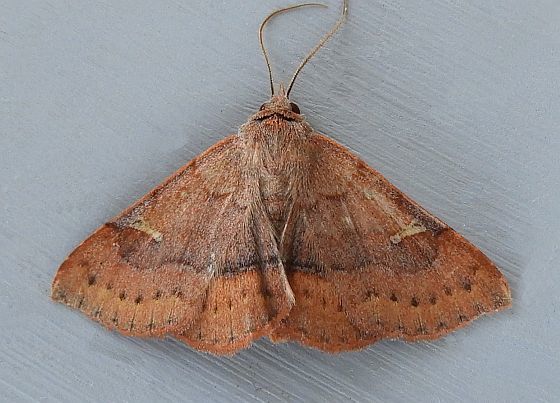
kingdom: Animalia
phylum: Arthropoda
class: Insecta
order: Lepidoptera
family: Erebidae
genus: Azeta
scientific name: Azeta schausi
